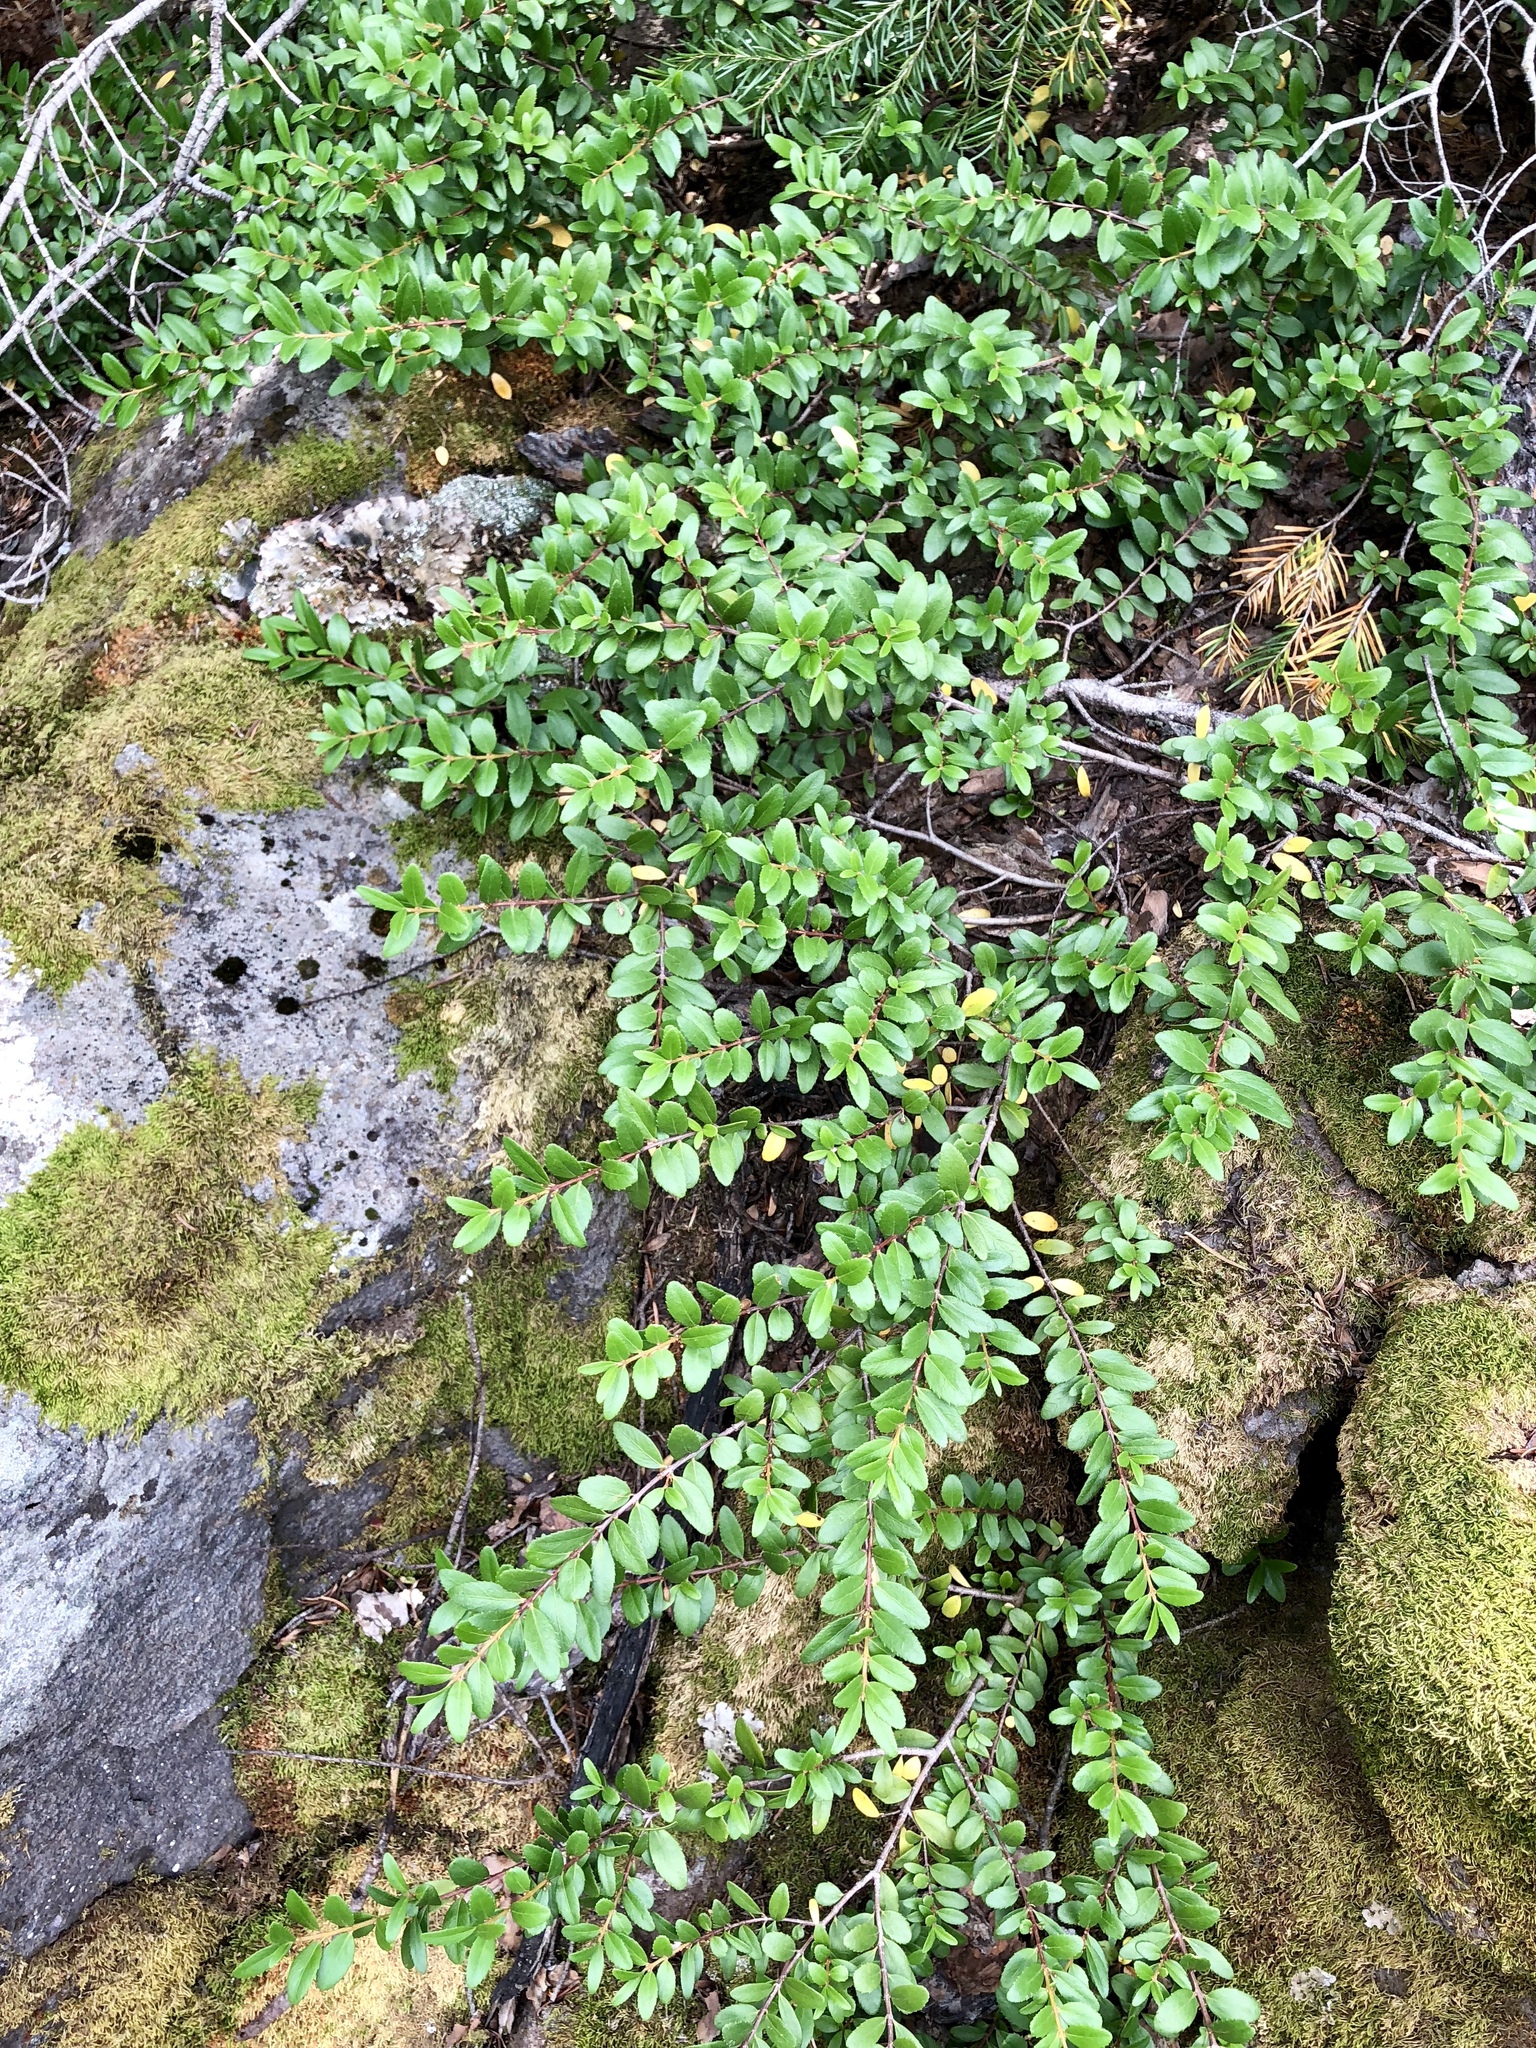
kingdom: Plantae
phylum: Tracheophyta
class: Magnoliopsida
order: Celastrales
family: Celastraceae
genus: Paxistima
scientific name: Paxistima myrsinites
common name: Mountain-lover
